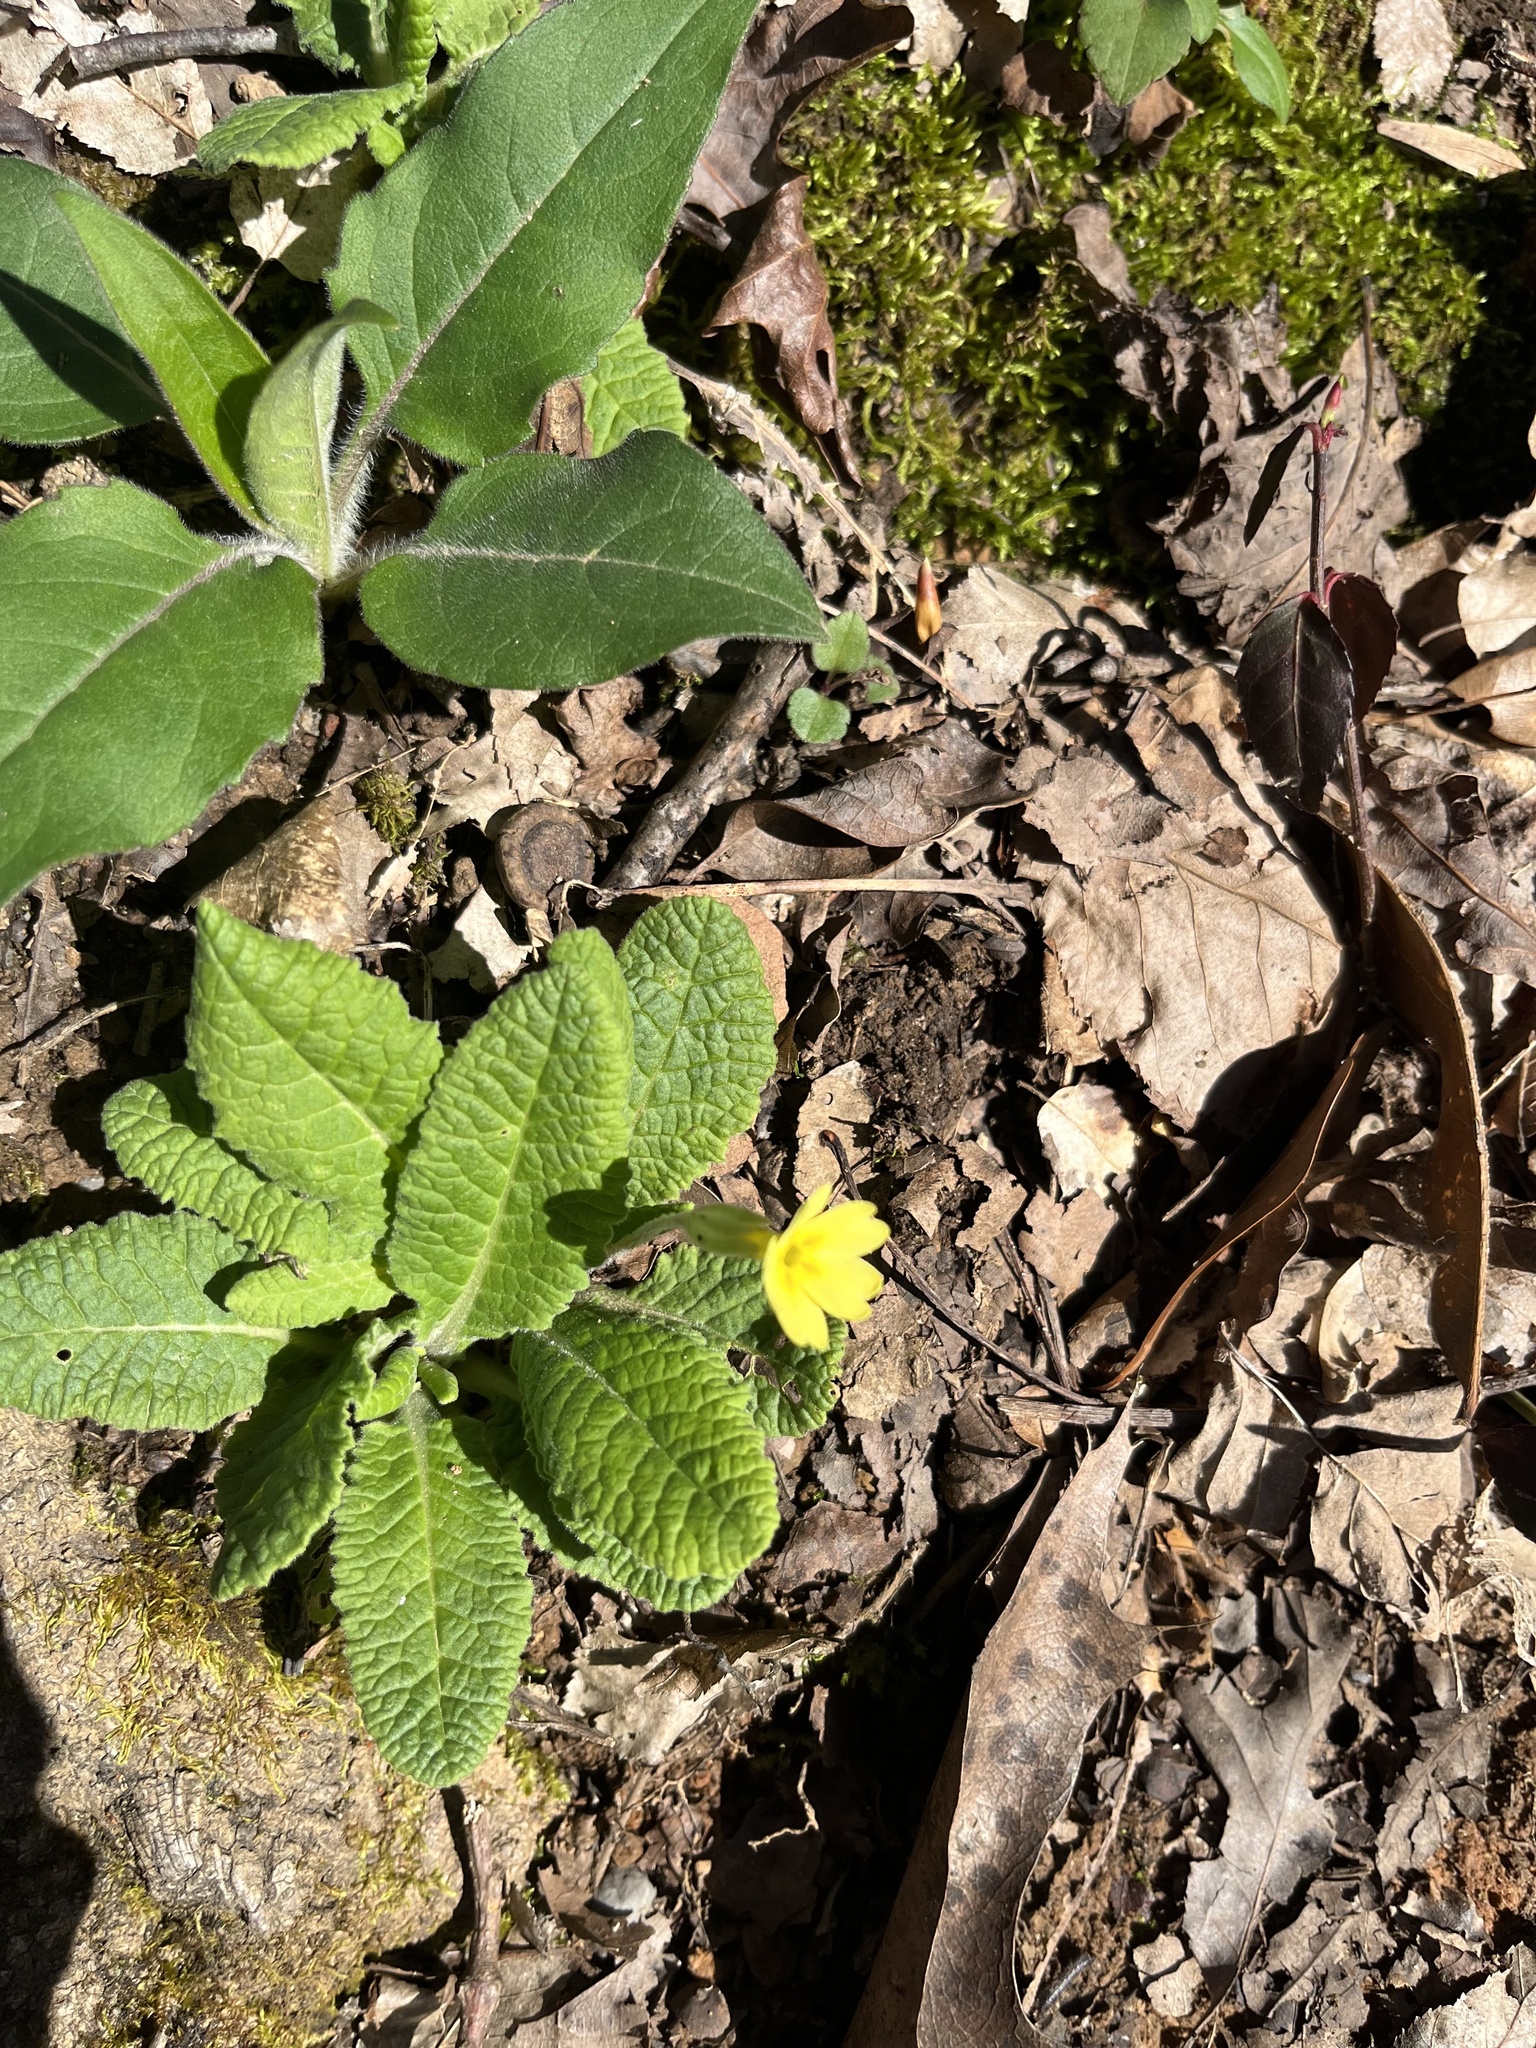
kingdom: Plantae
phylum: Tracheophyta
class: Magnoliopsida
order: Ericales
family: Primulaceae
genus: Primula
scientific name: Primula vulgaris
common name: Primrose
